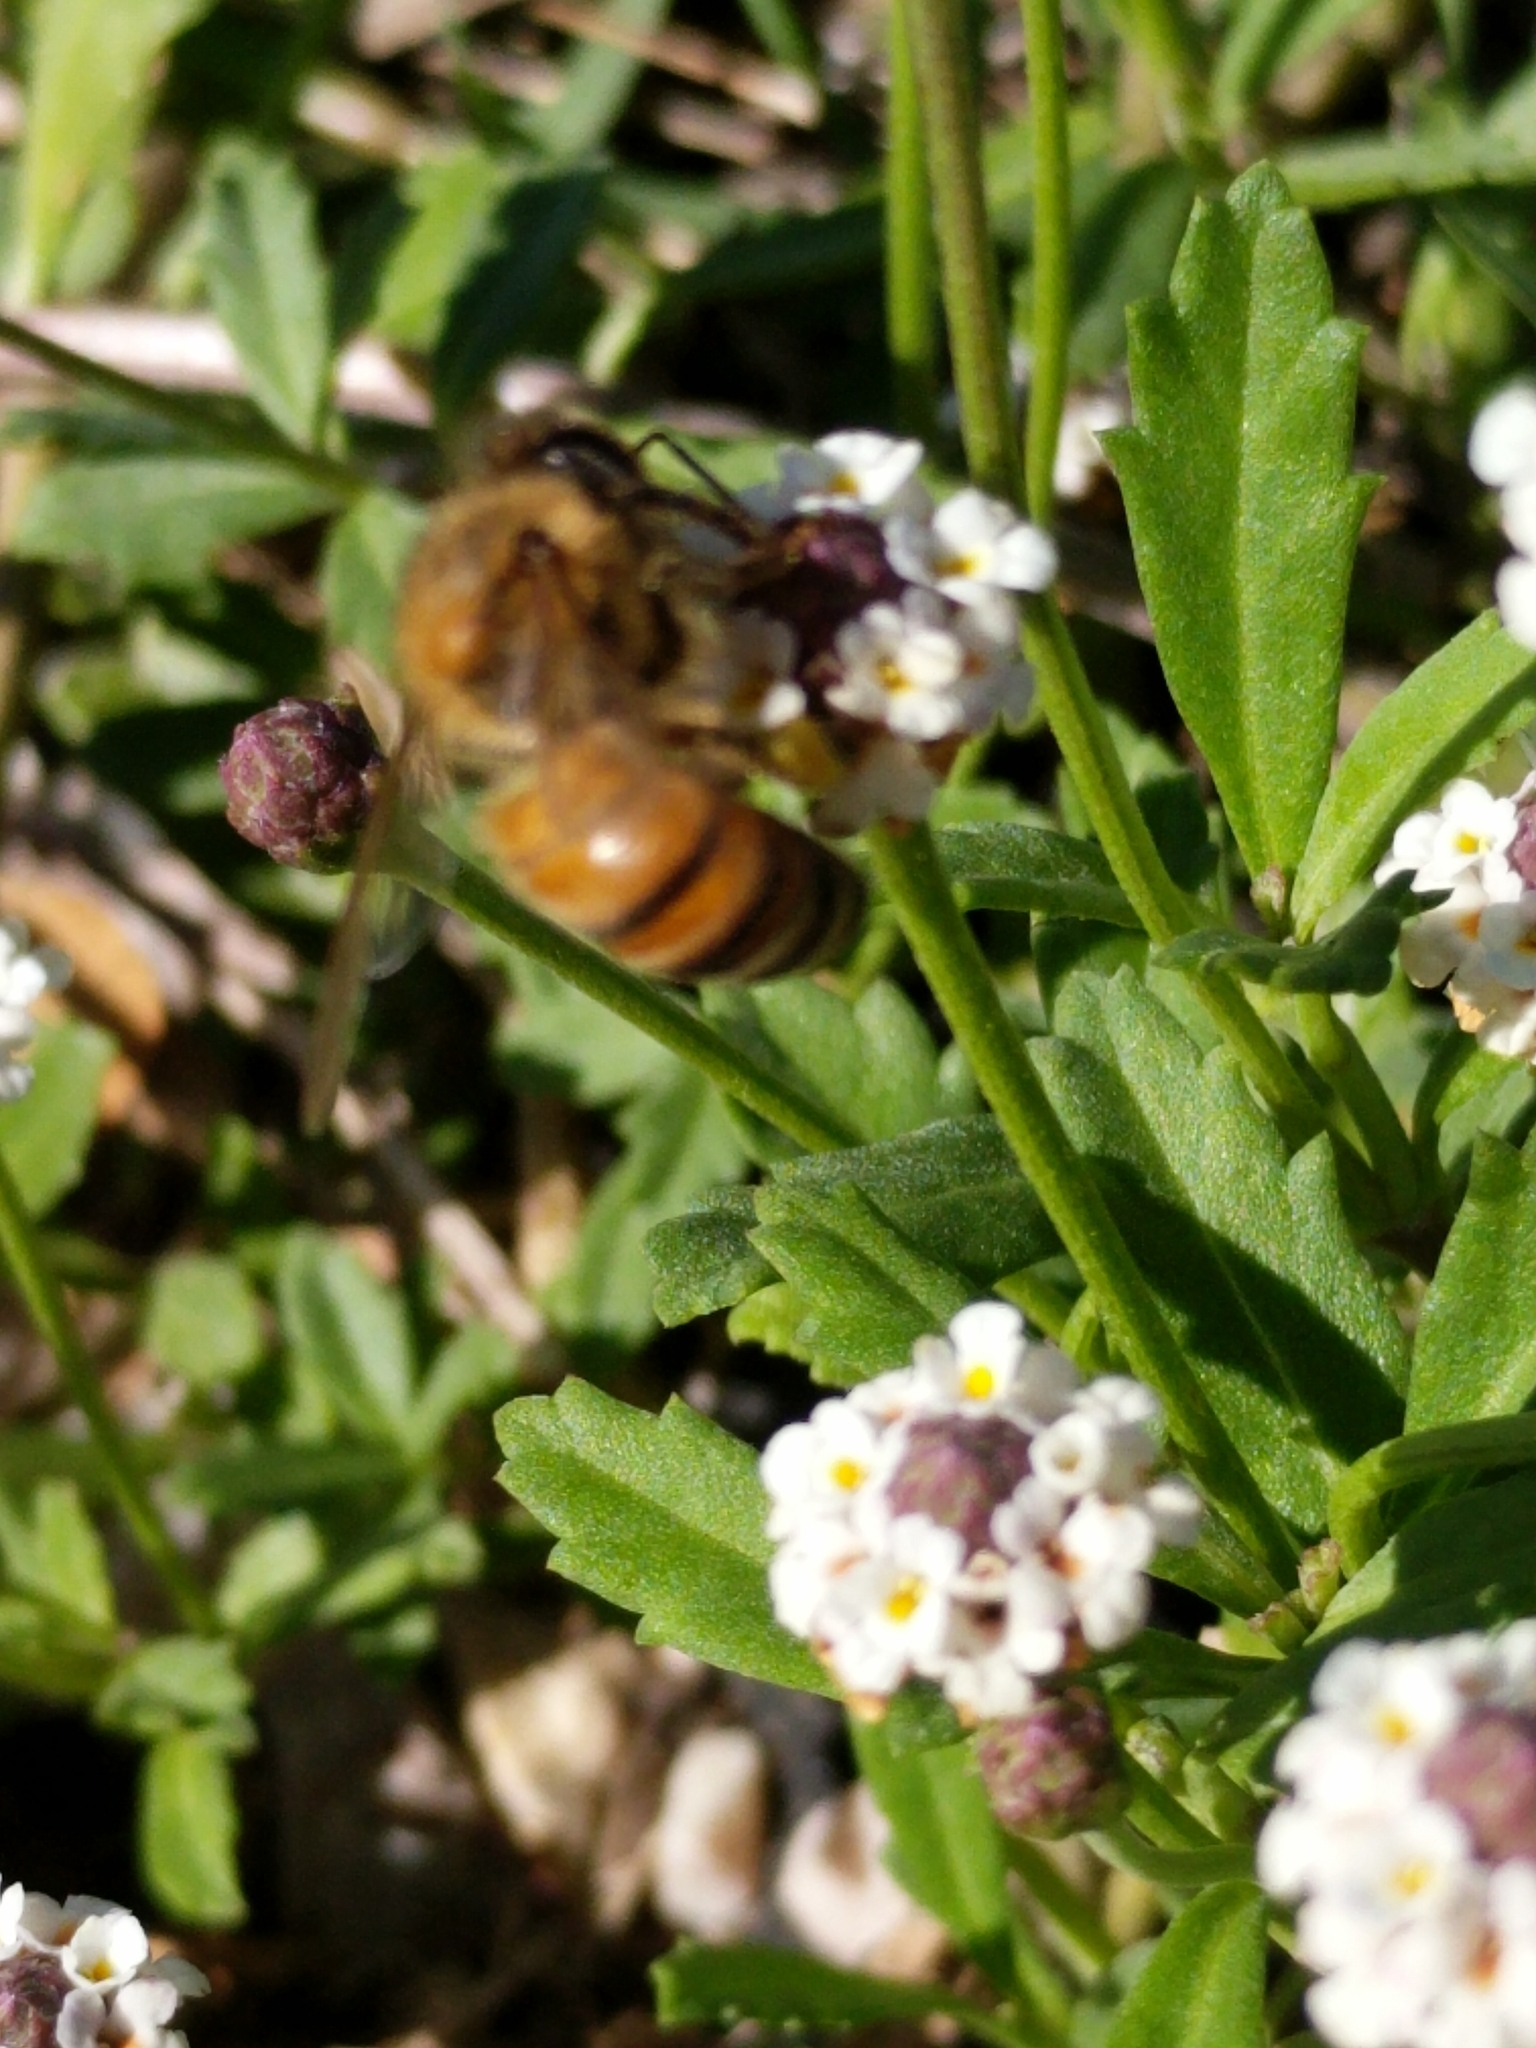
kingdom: Animalia
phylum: Arthropoda
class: Insecta
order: Hymenoptera
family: Apidae
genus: Apis
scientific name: Apis mellifera
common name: Honey bee
